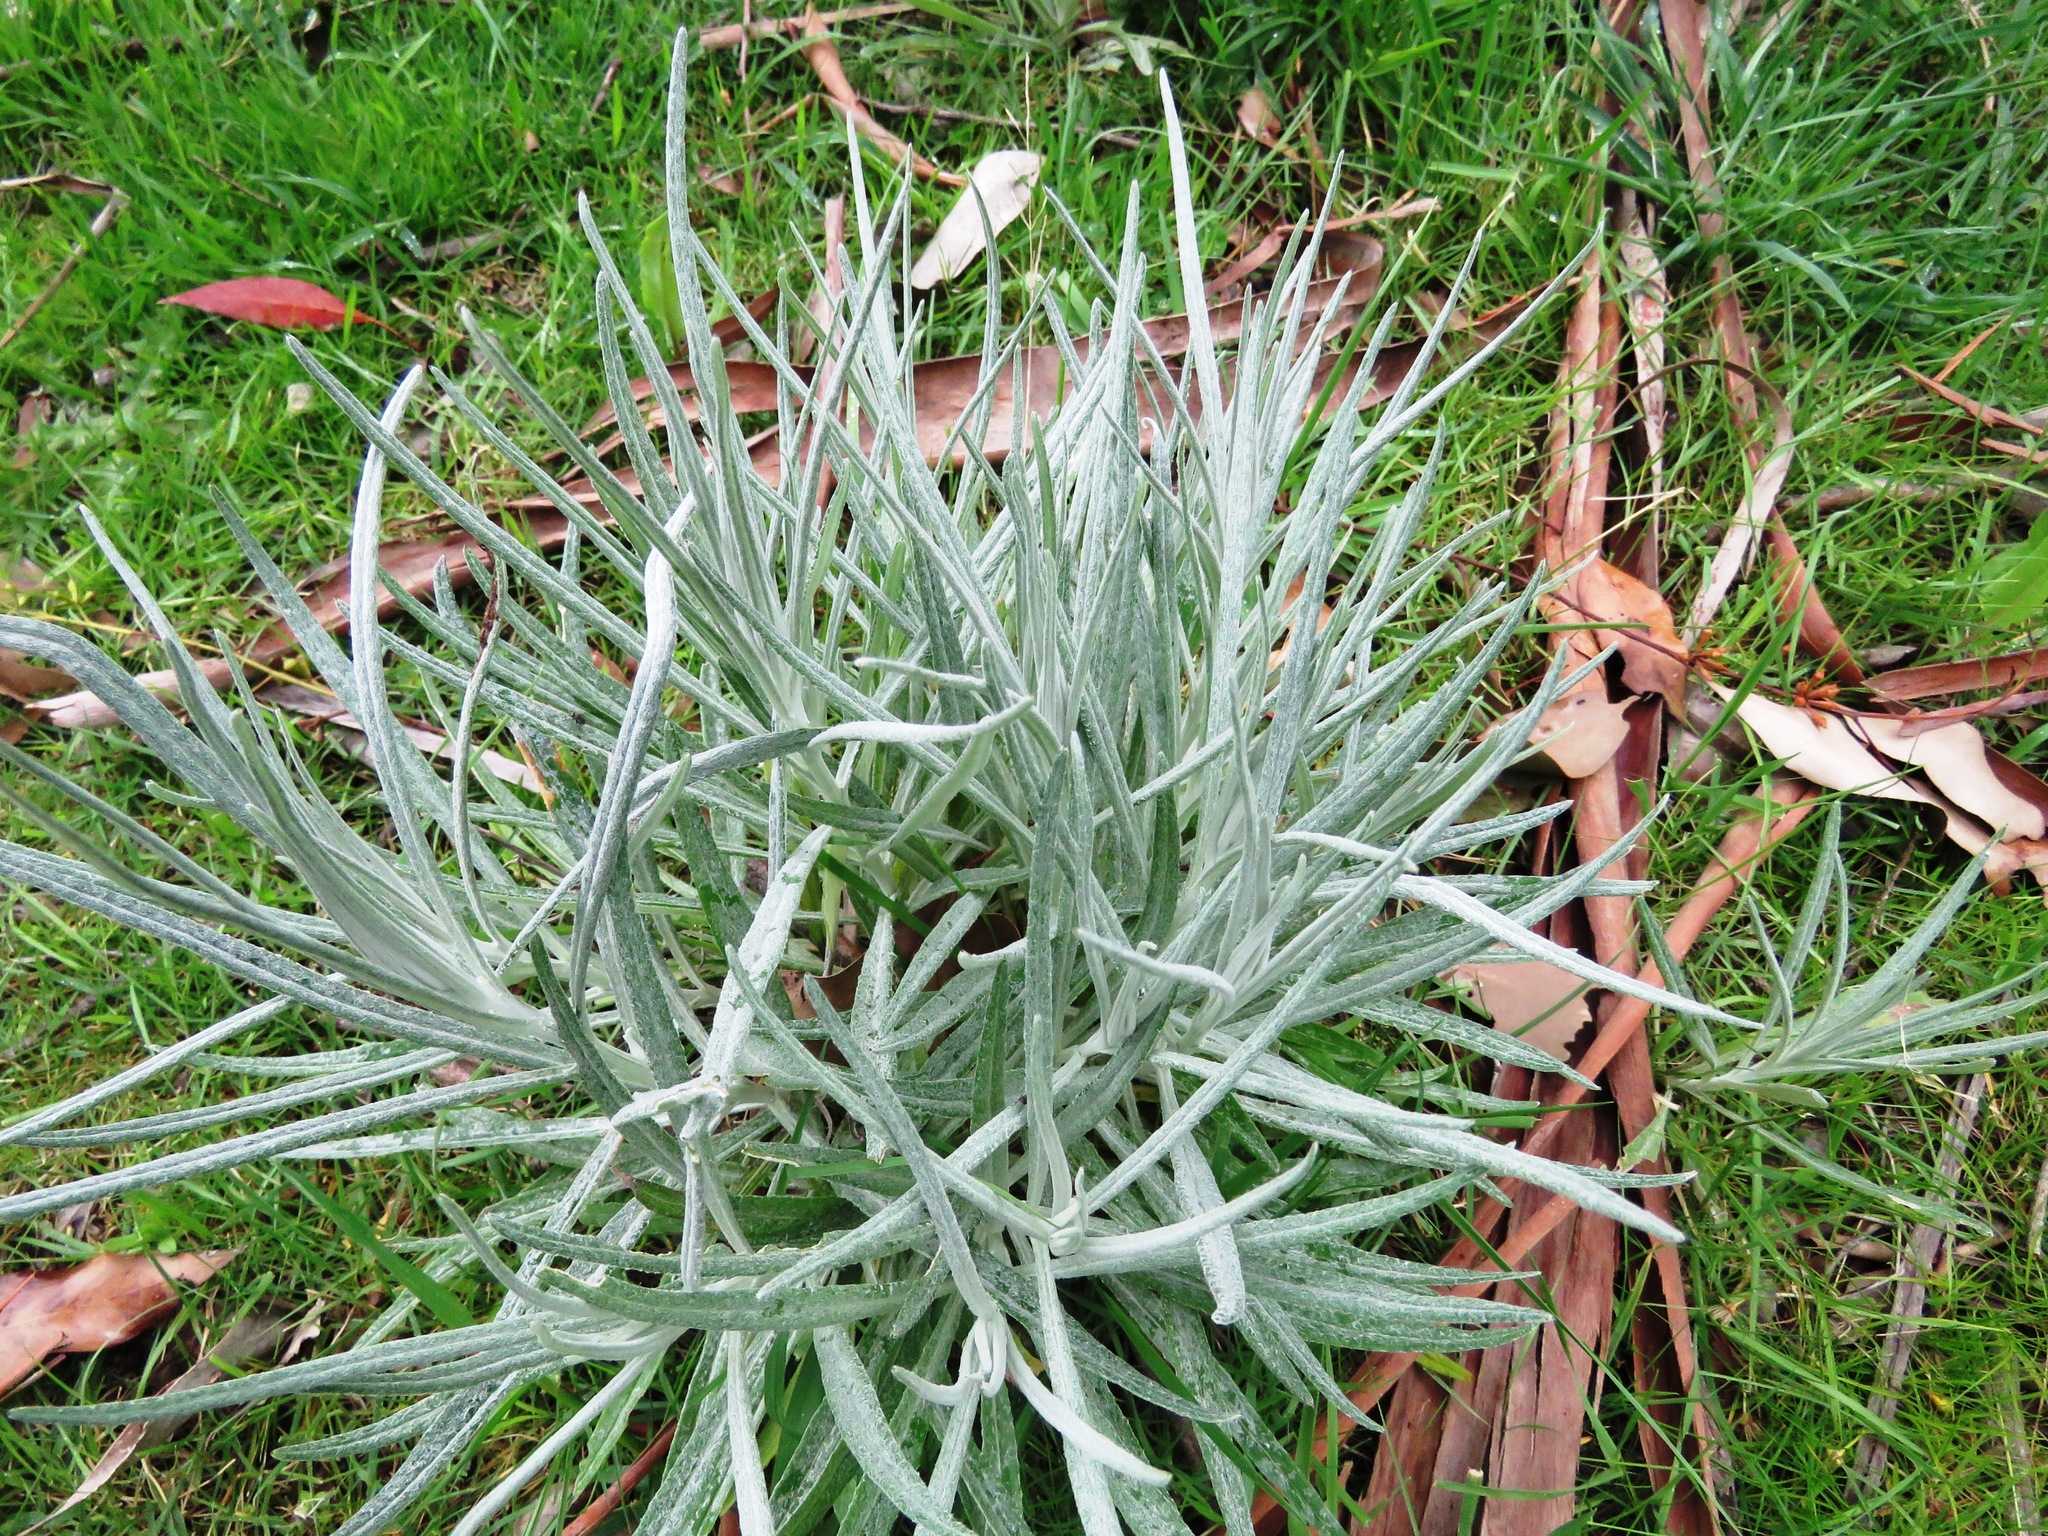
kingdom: Plantae
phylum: Tracheophyta
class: Magnoliopsida
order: Asterales
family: Asteraceae
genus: Senecio
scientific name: Senecio quadridentatus
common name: Cotton fireweed
